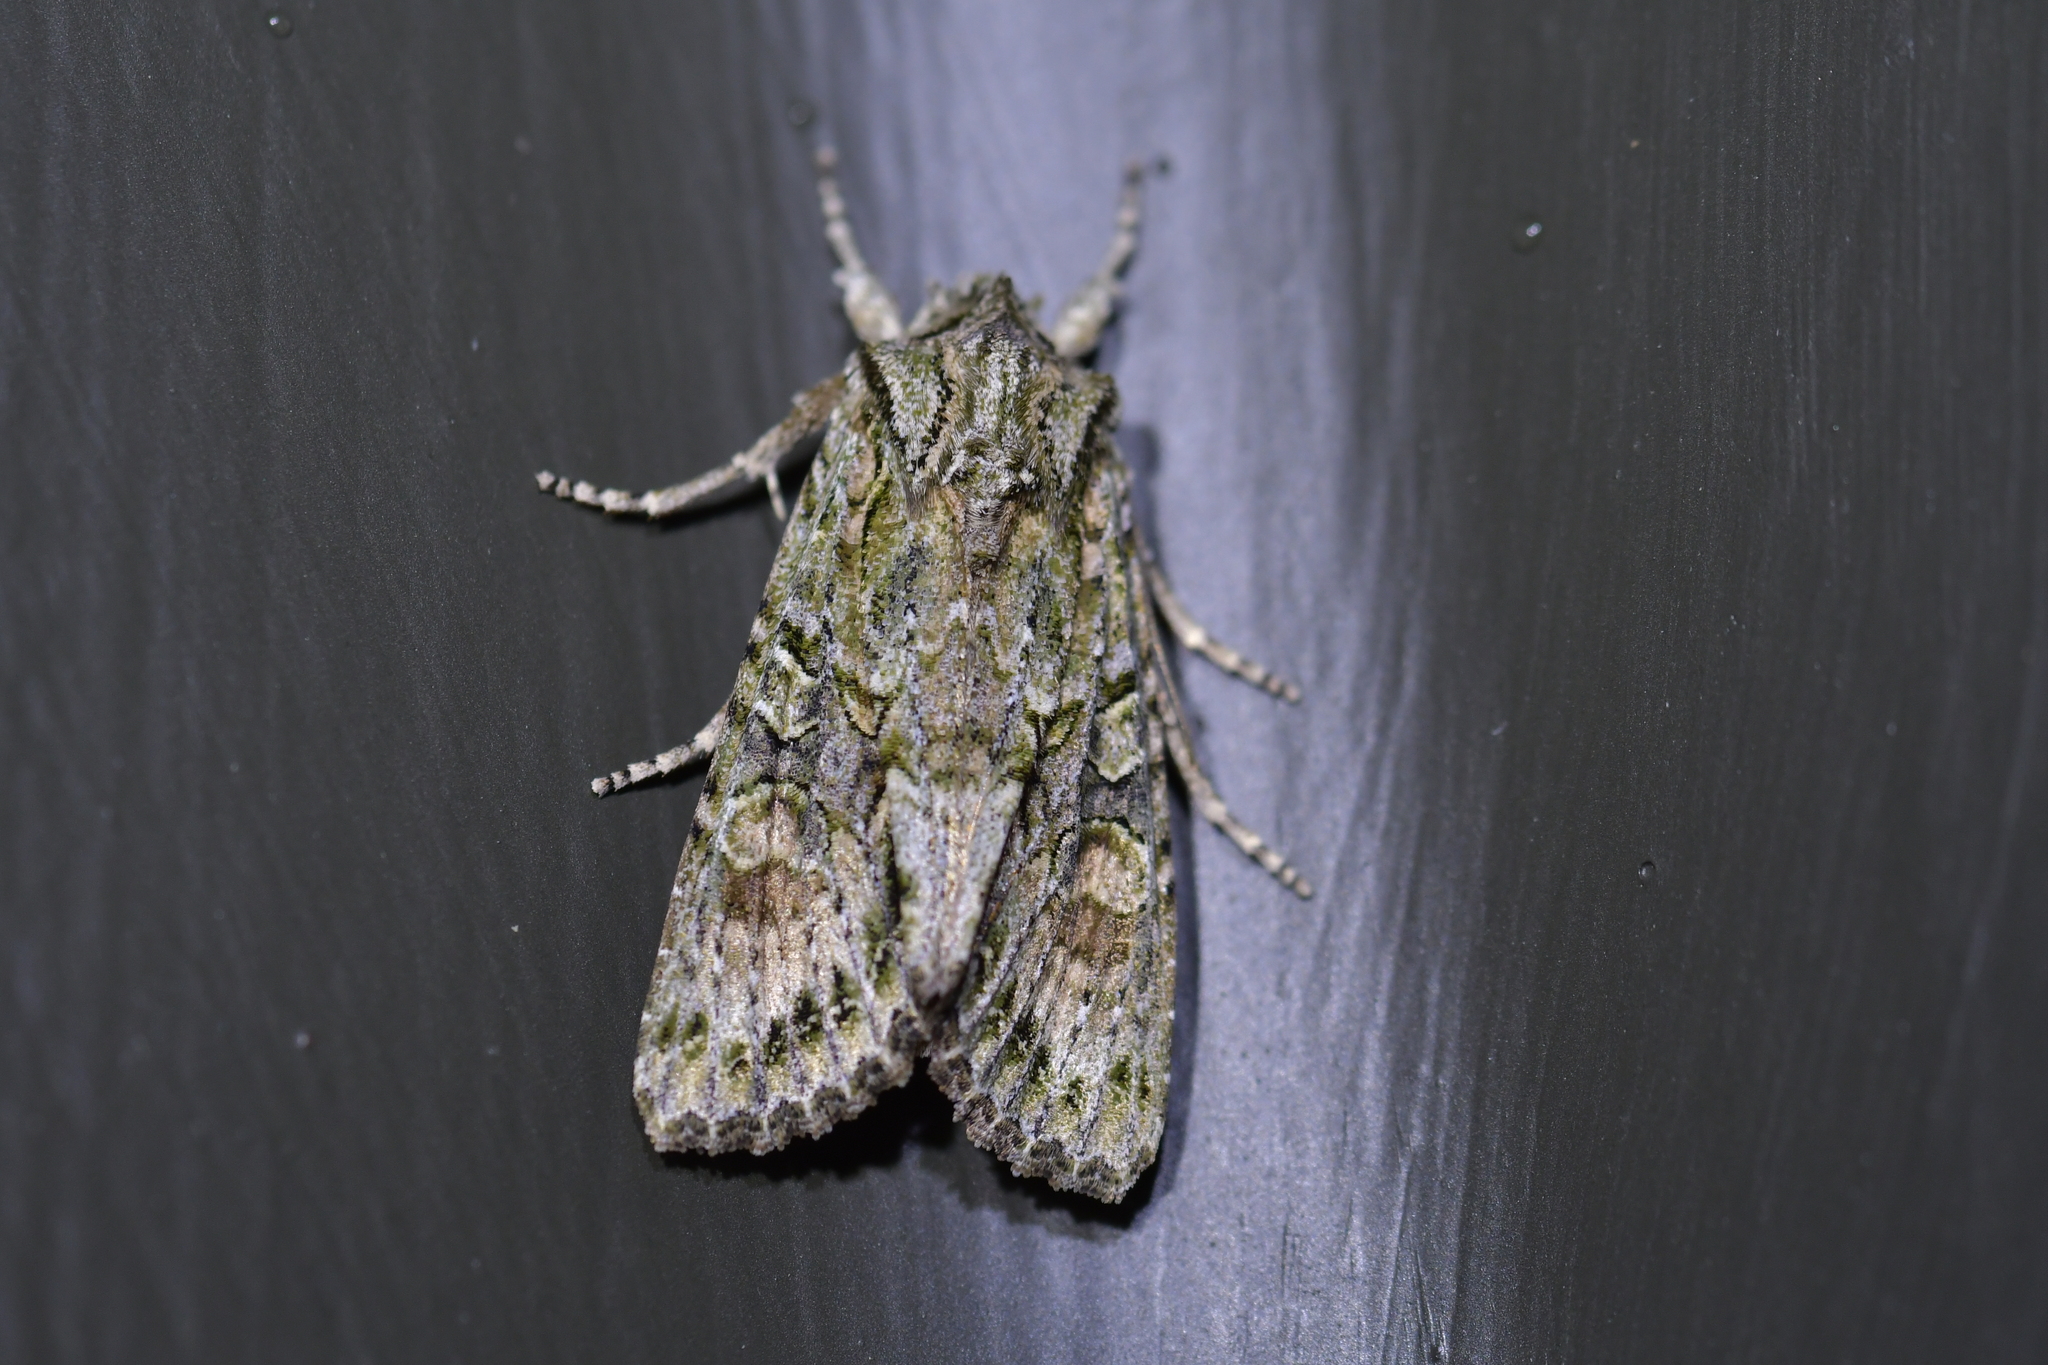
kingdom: Animalia
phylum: Arthropoda
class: Insecta
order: Lepidoptera
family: Noctuidae
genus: Ichneutica
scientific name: Ichneutica mutans
